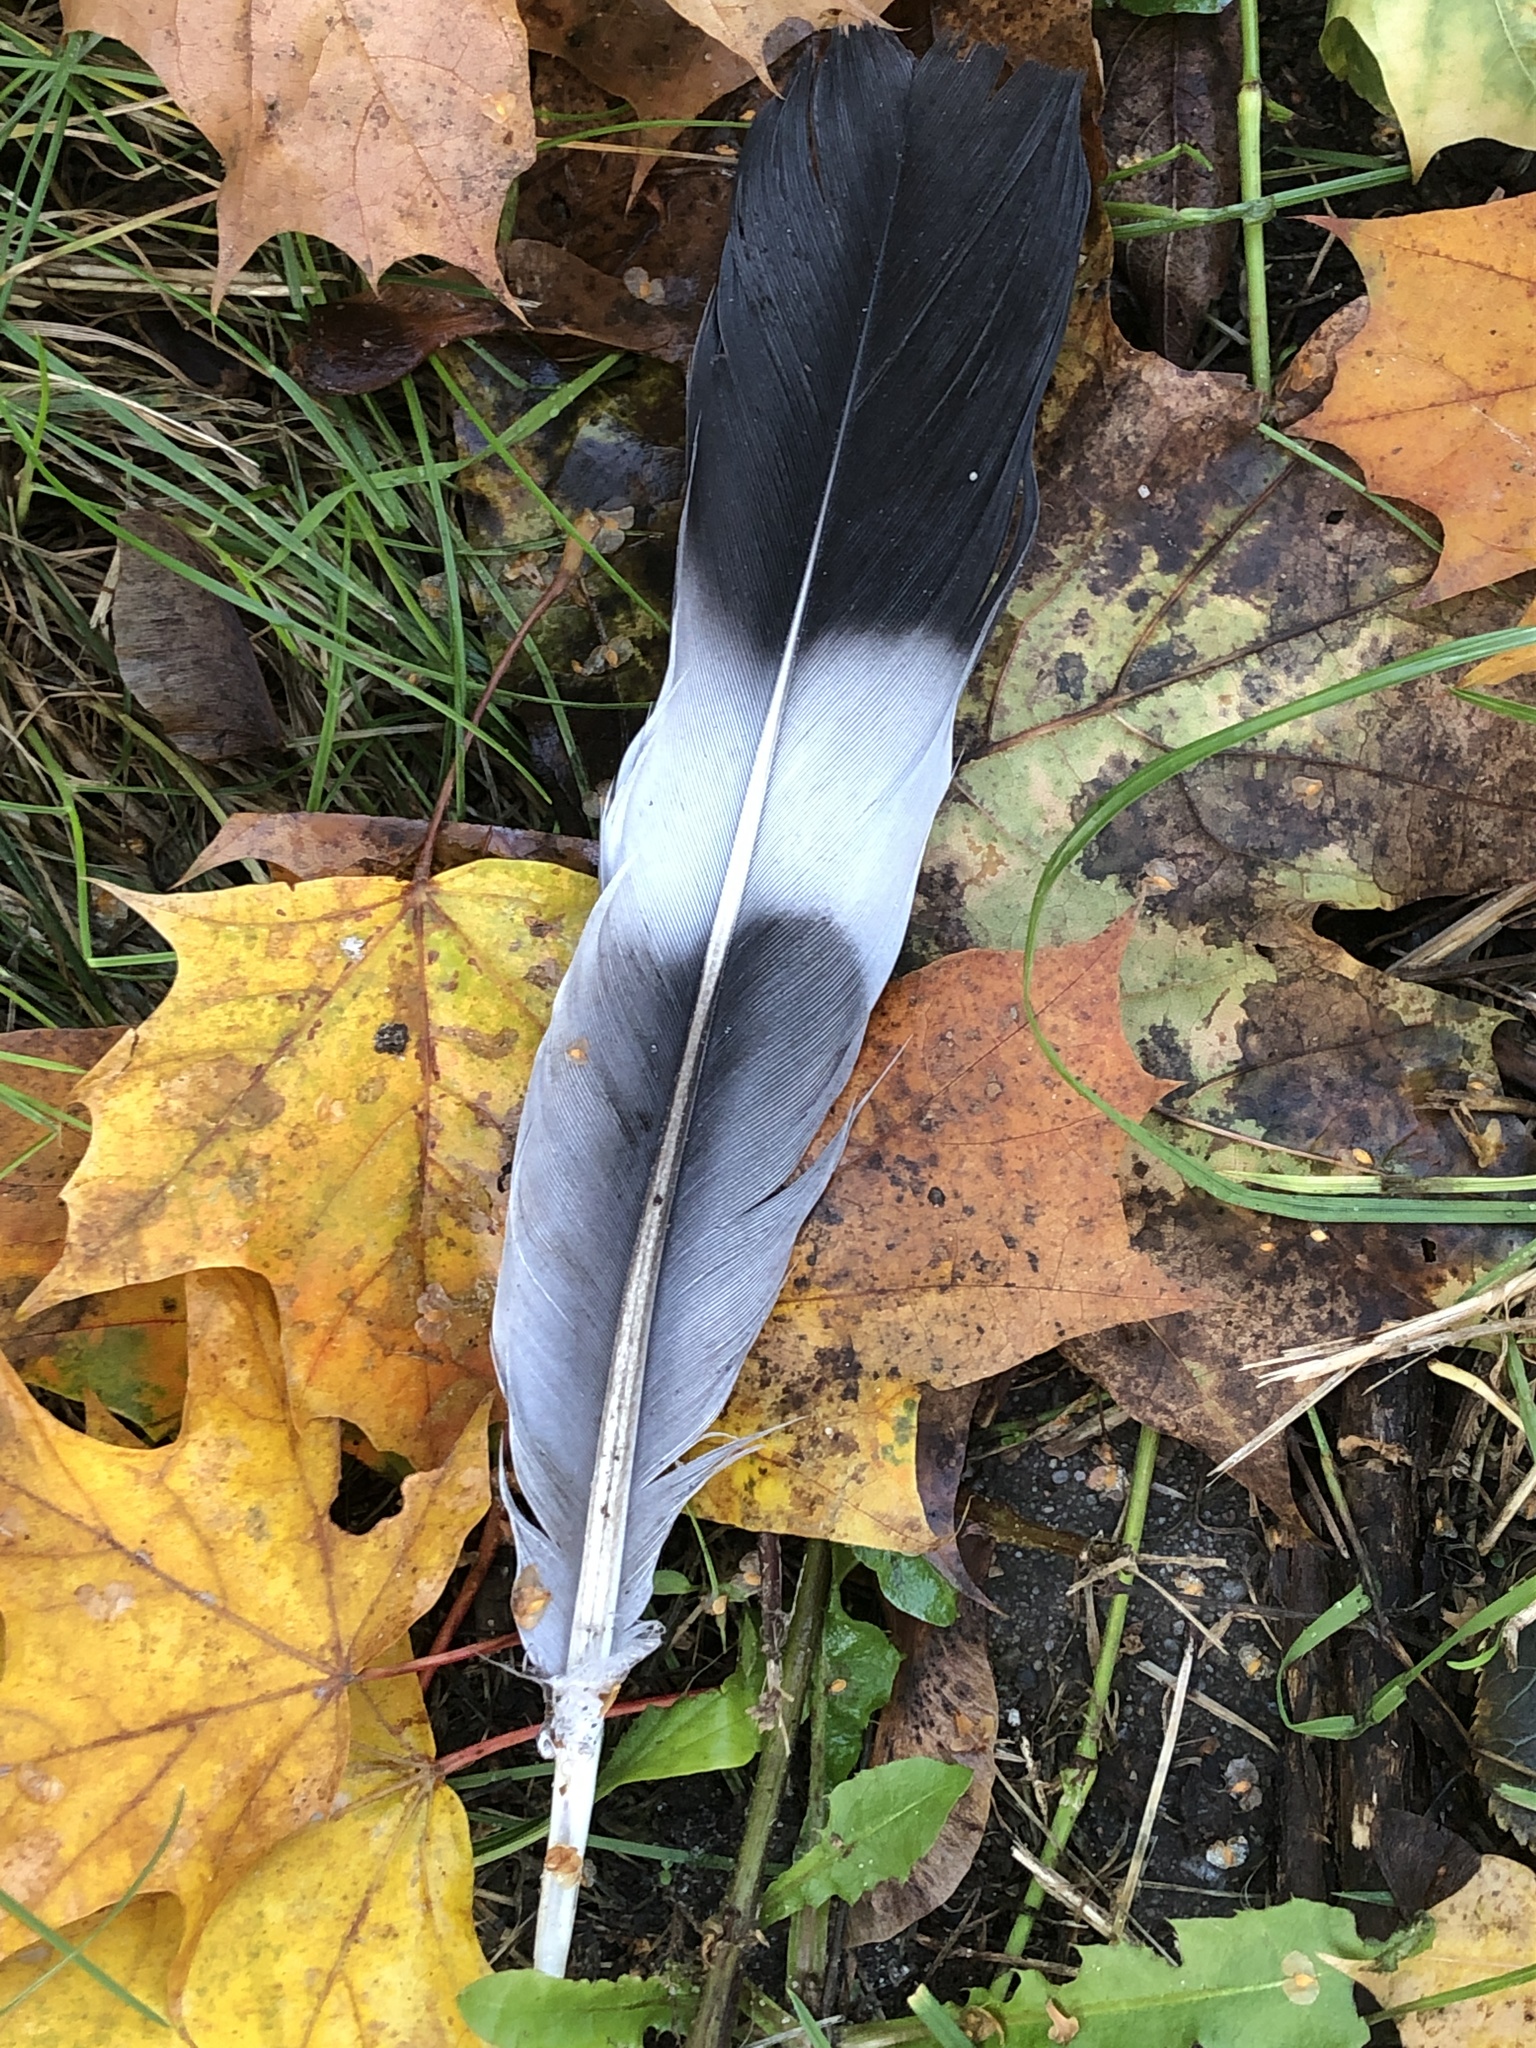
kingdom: Animalia
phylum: Chordata
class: Aves
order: Columbiformes
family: Columbidae
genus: Columba
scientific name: Columba palumbus
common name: Common wood pigeon
